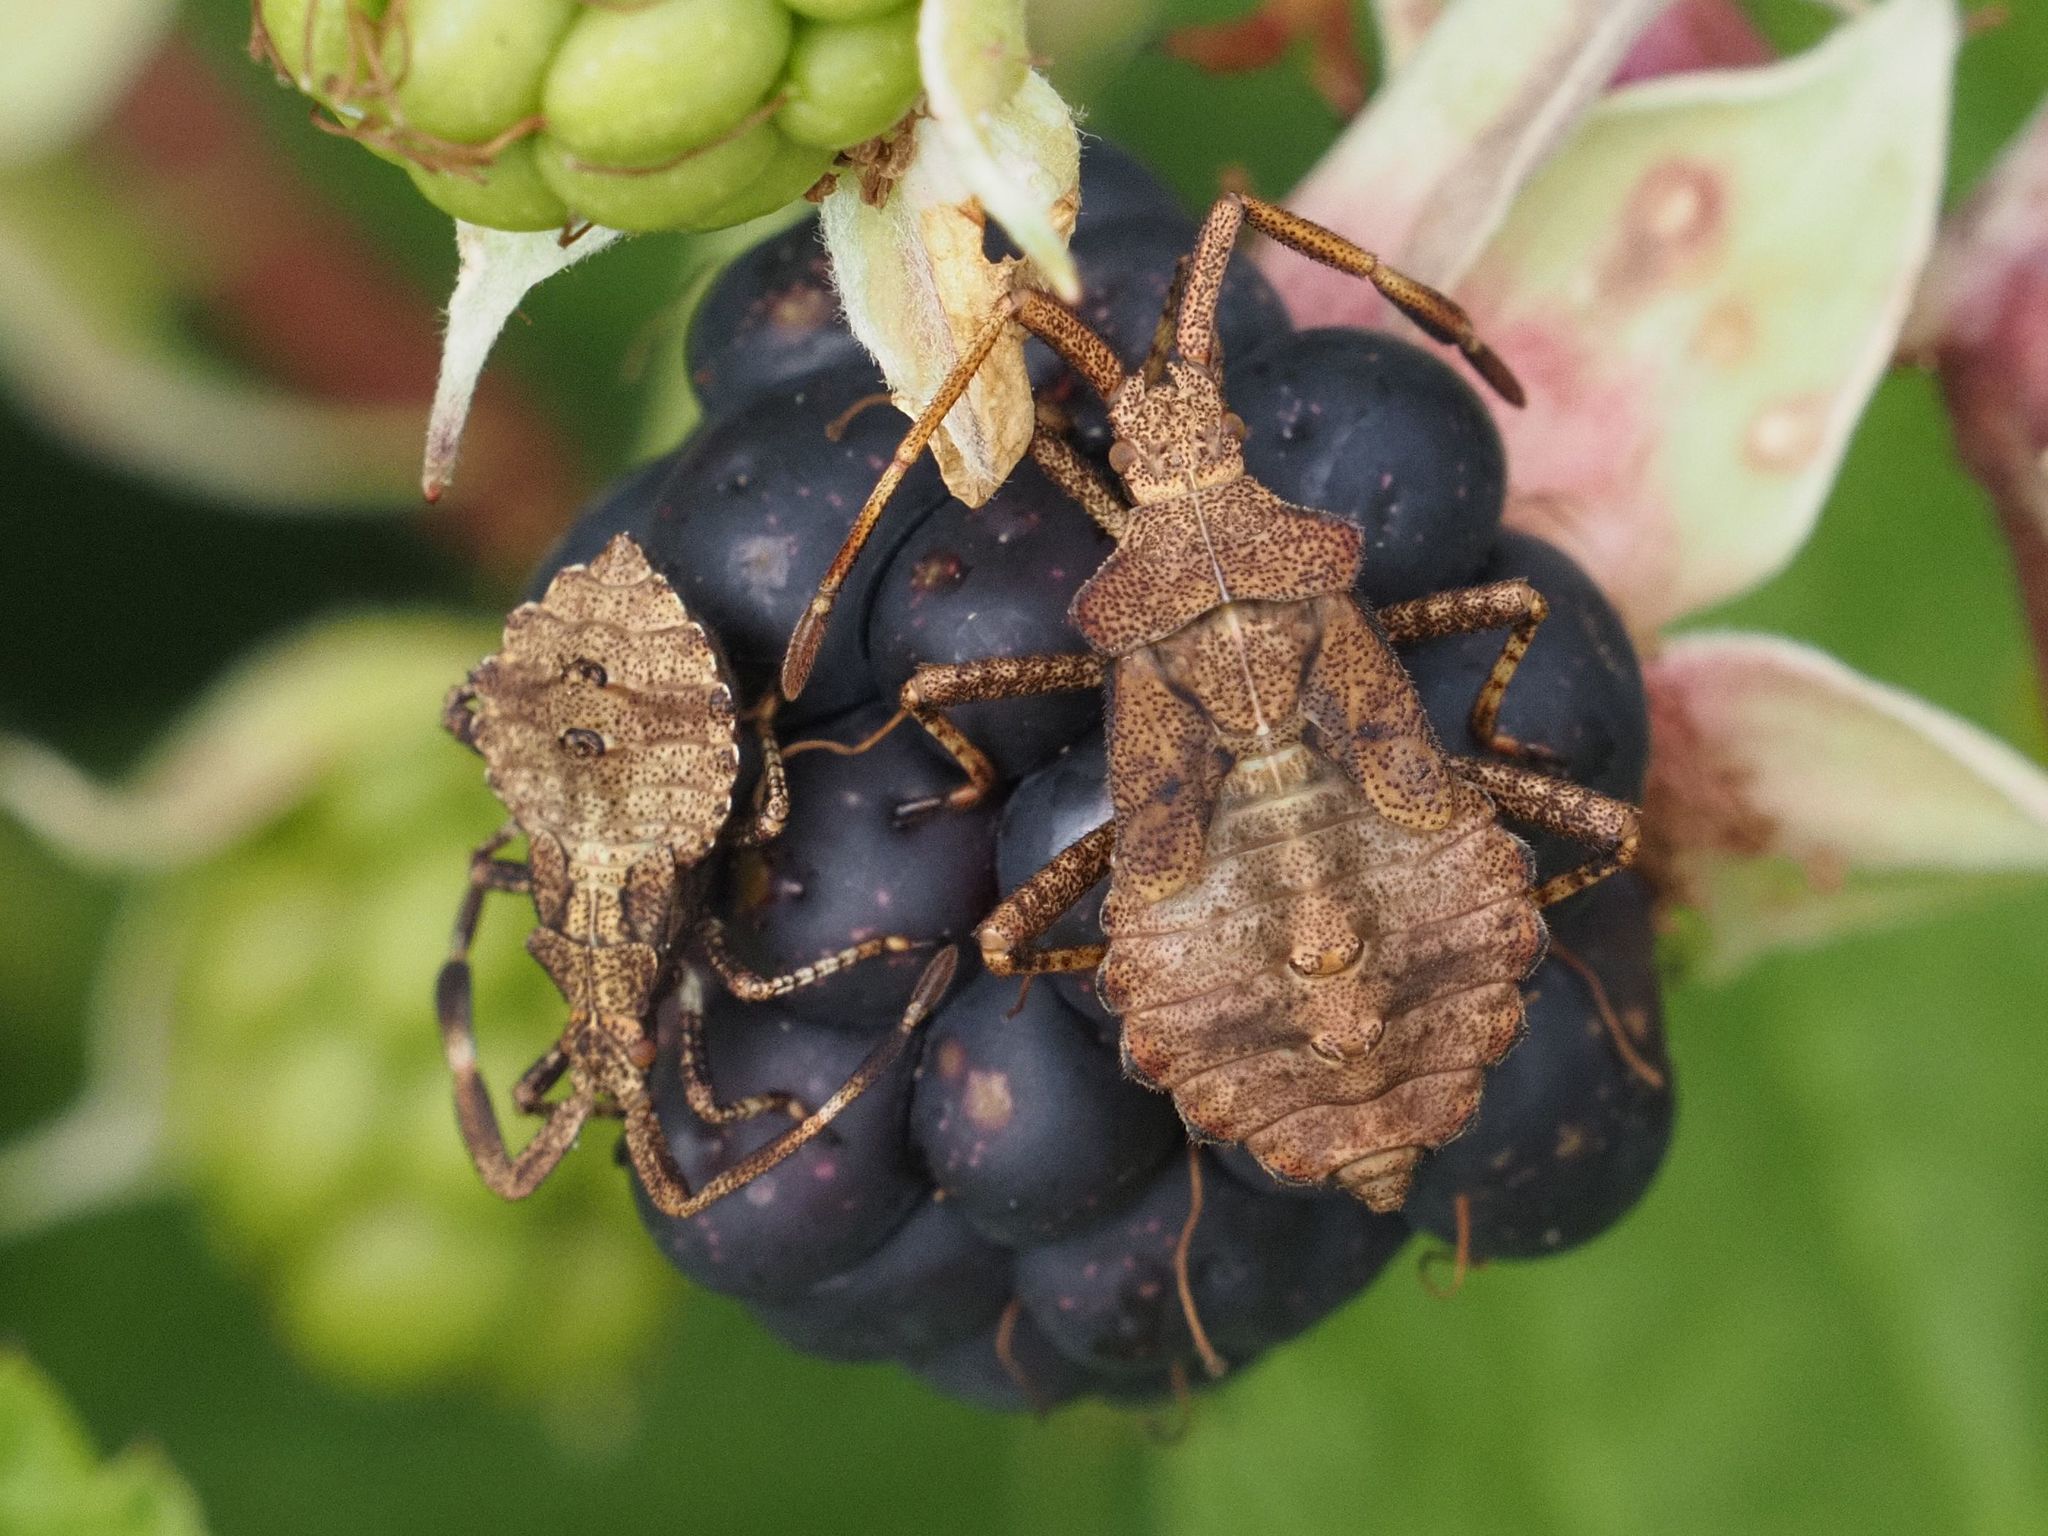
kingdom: Animalia
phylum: Arthropoda
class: Insecta
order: Hemiptera
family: Coreidae
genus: Coreus
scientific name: Coreus marginatus
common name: Dock bug
